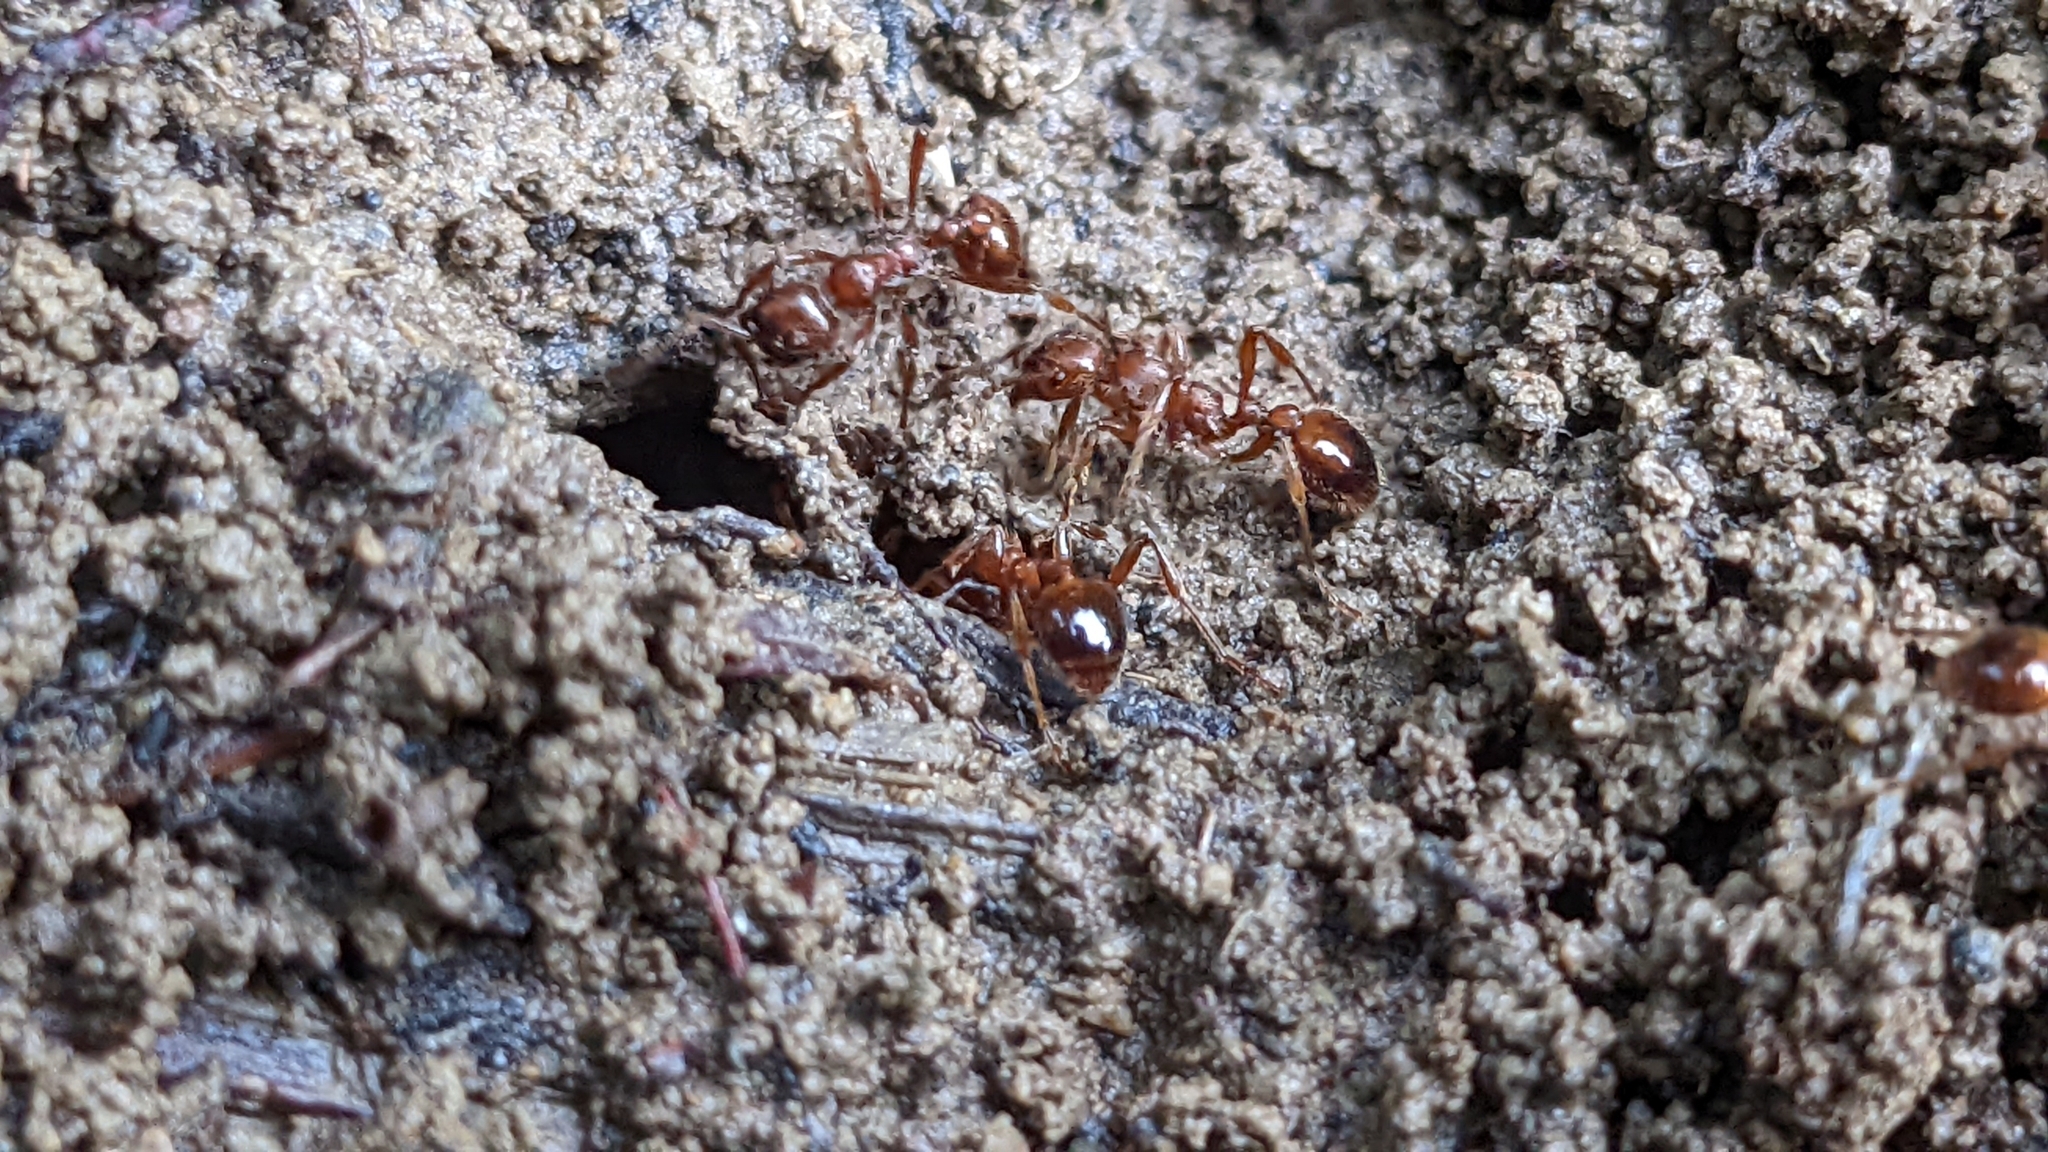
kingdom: Animalia
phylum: Arthropoda
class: Insecta
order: Hymenoptera
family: Formicidae
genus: Manica
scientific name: Manica rubida
